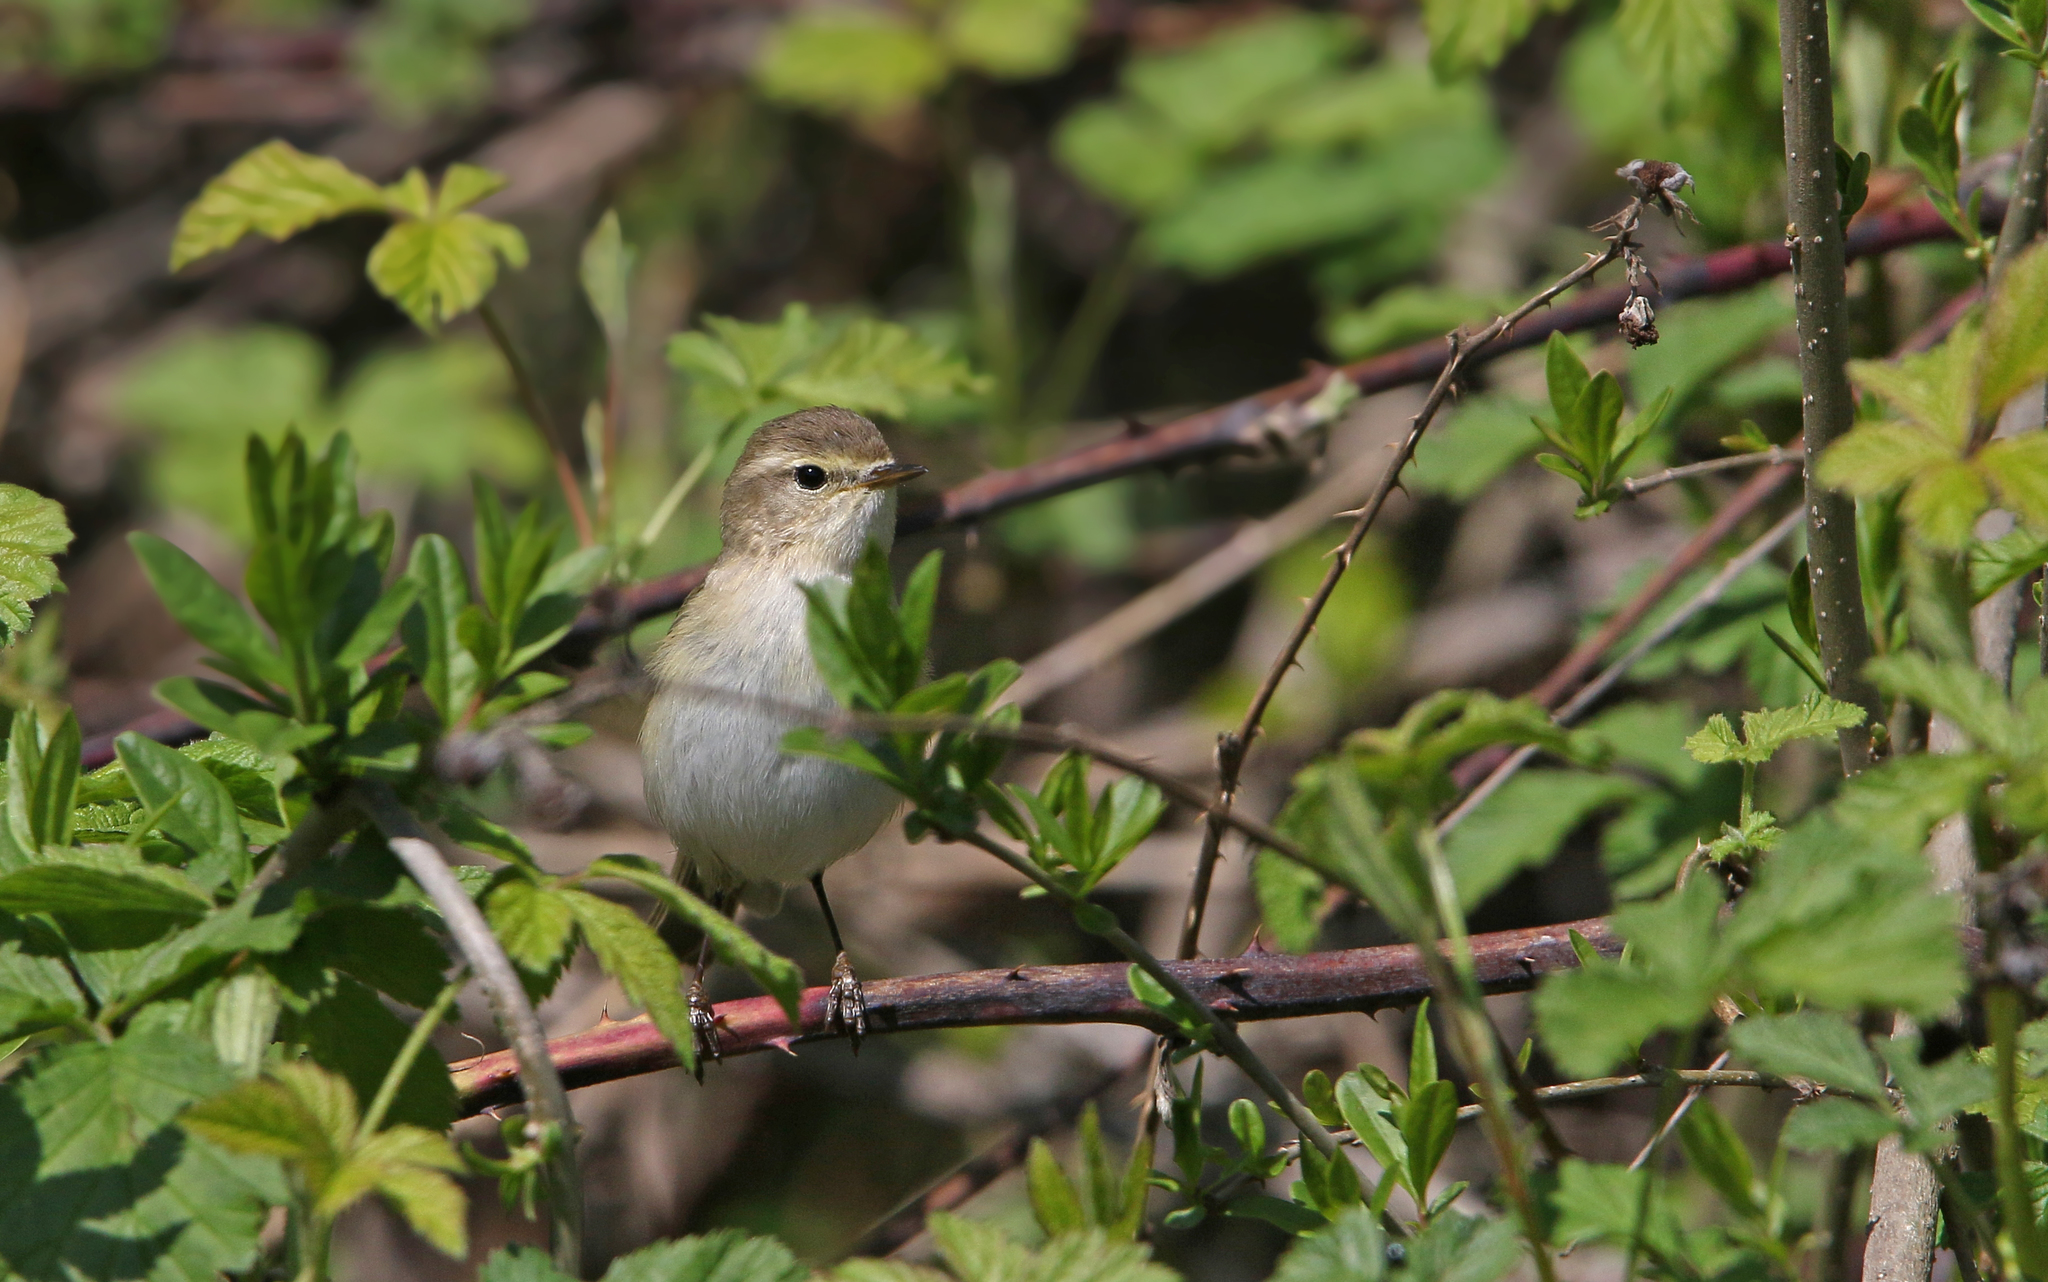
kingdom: Animalia
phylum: Chordata
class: Aves
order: Passeriformes
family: Phylloscopidae
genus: Phylloscopus
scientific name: Phylloscopus sindianus
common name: Mountain chiffchaff
